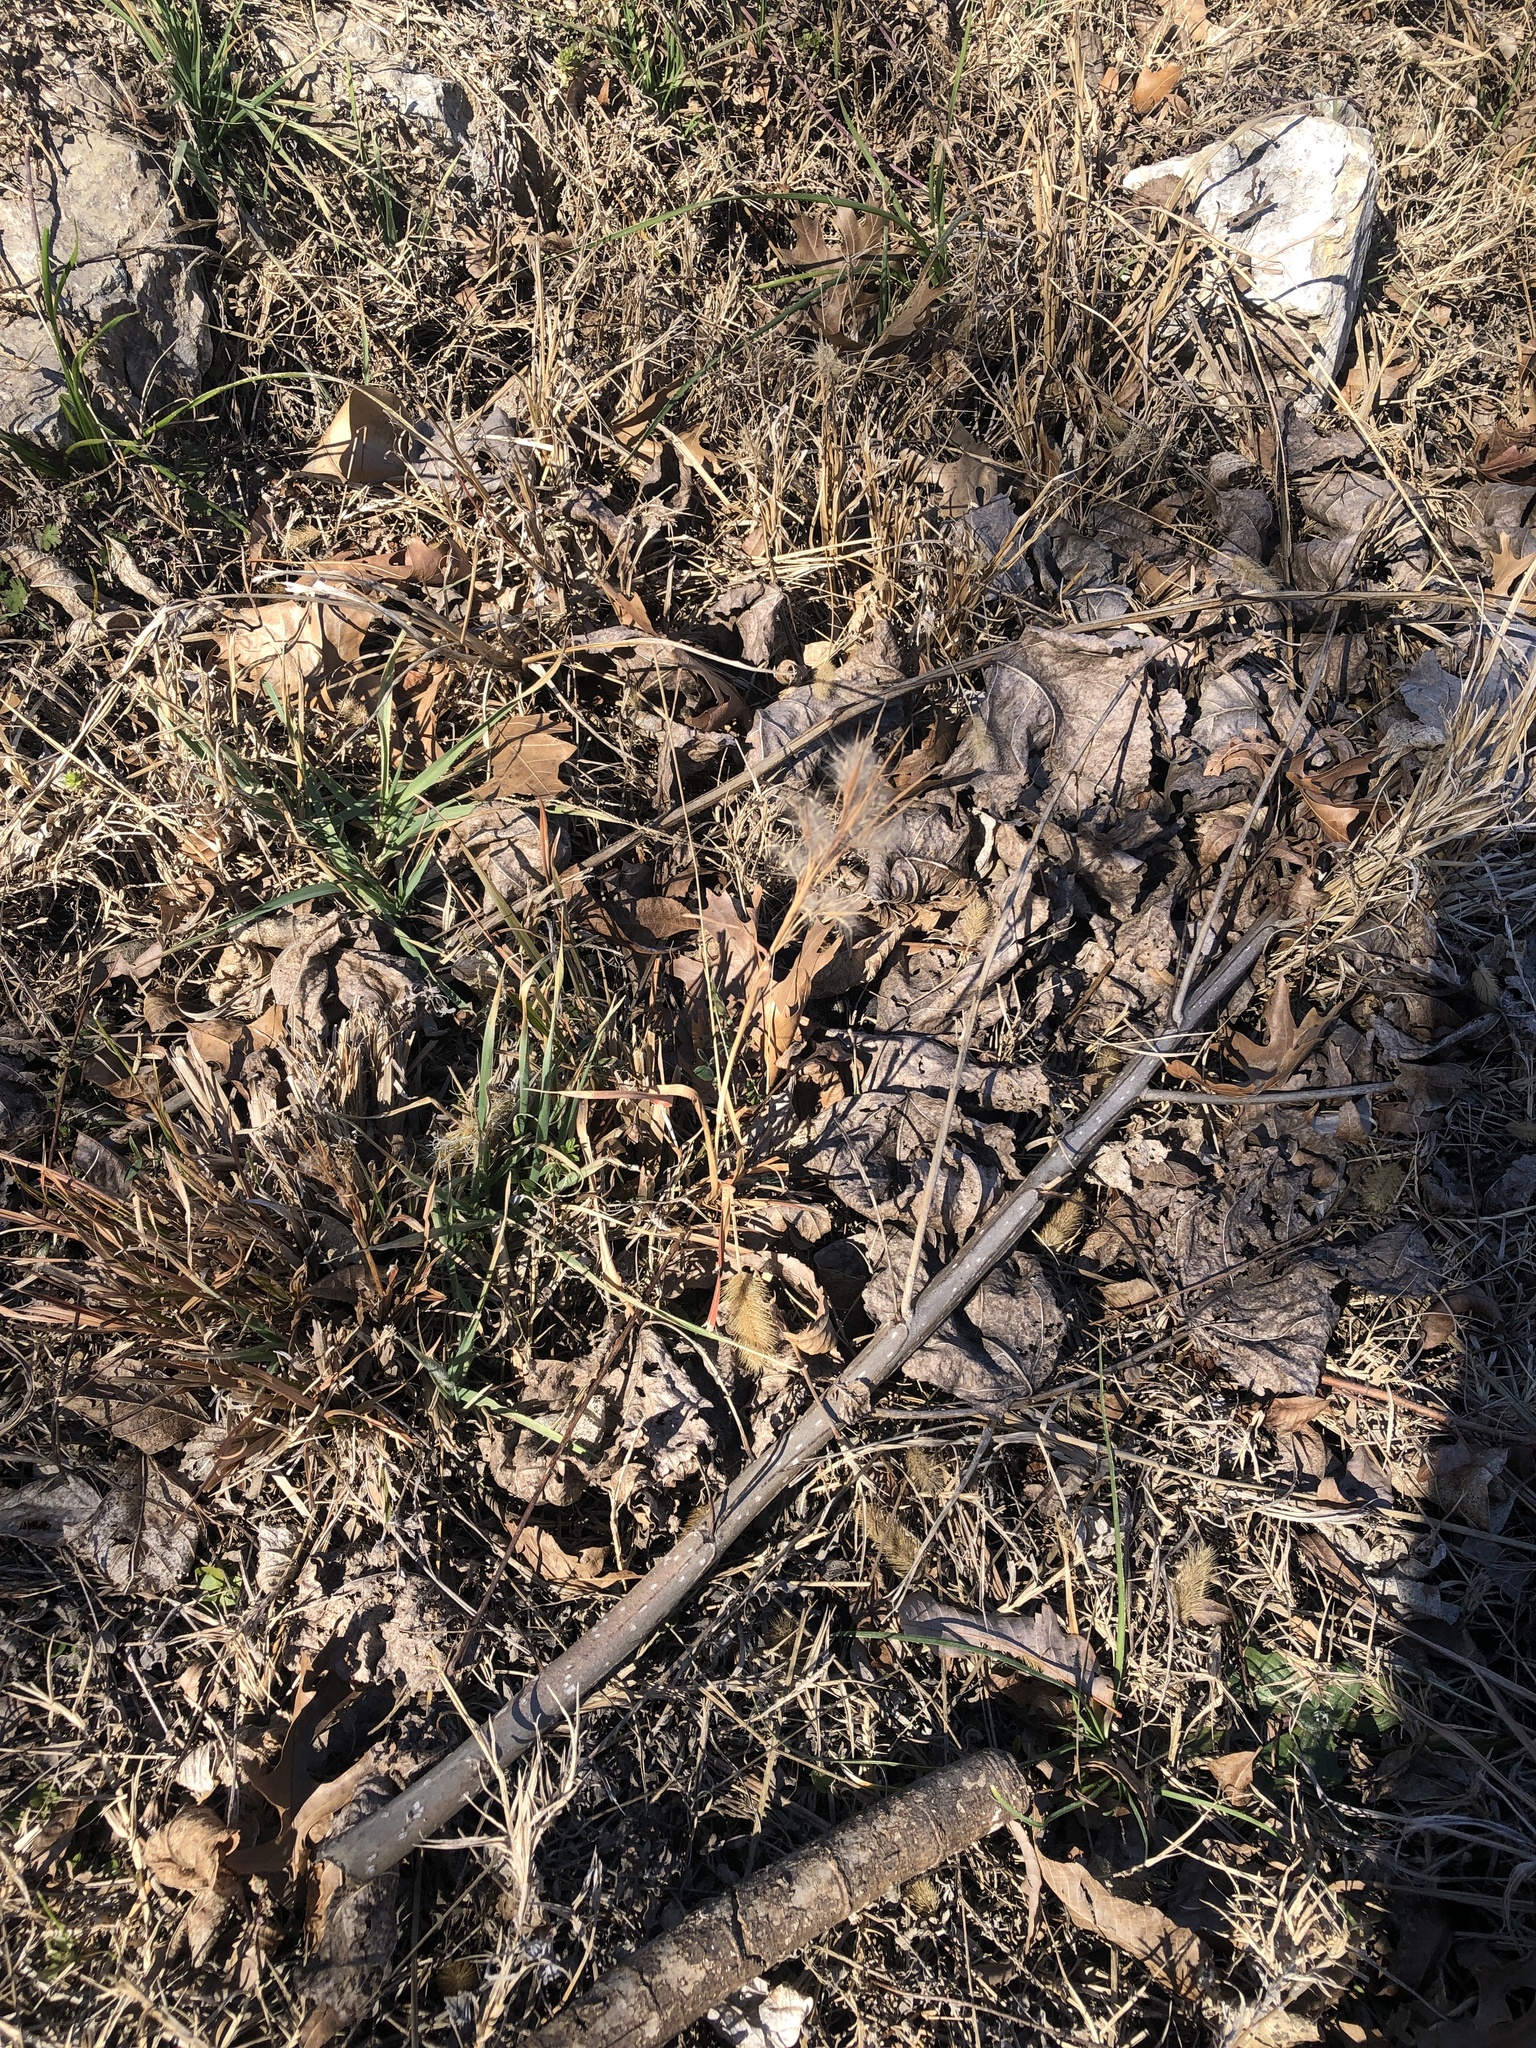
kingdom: Plantae
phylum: Tracheophyta
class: Liliopsida
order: Poales
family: Poaceae
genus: Andropogon
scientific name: Andropogon tenuispatheus
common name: Bushy bluestem
